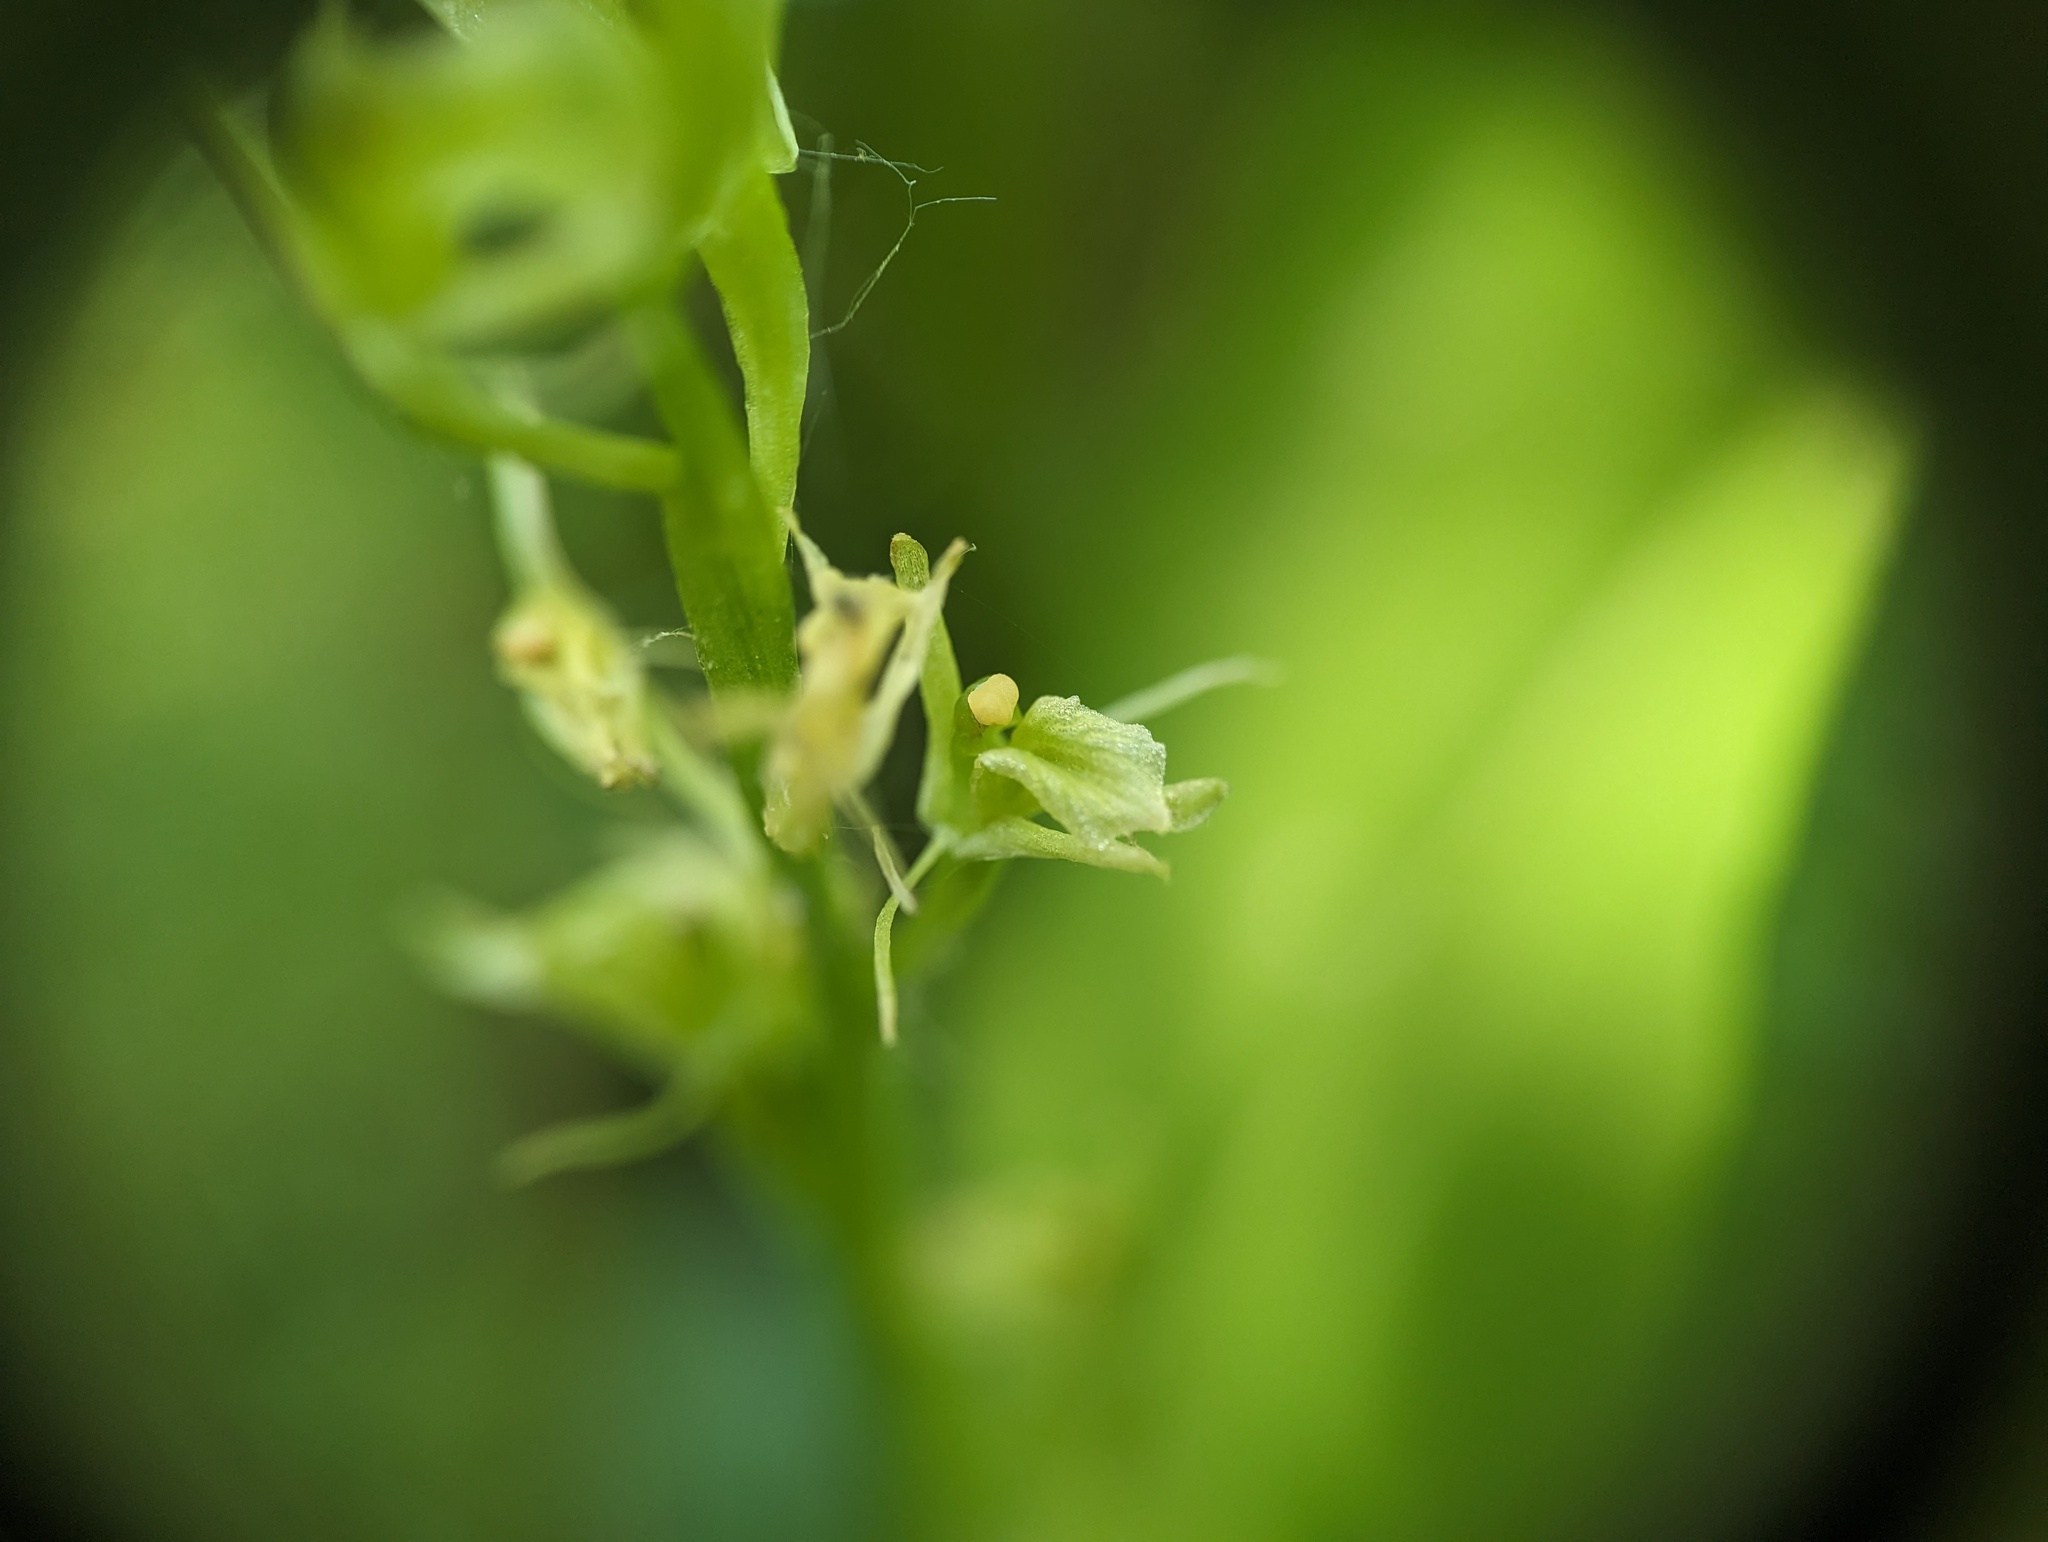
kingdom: Animalia
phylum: Arthropoda
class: Insecta
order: Coleoptera
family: Curculionidae
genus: Liparis
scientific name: Liparis loeselii
